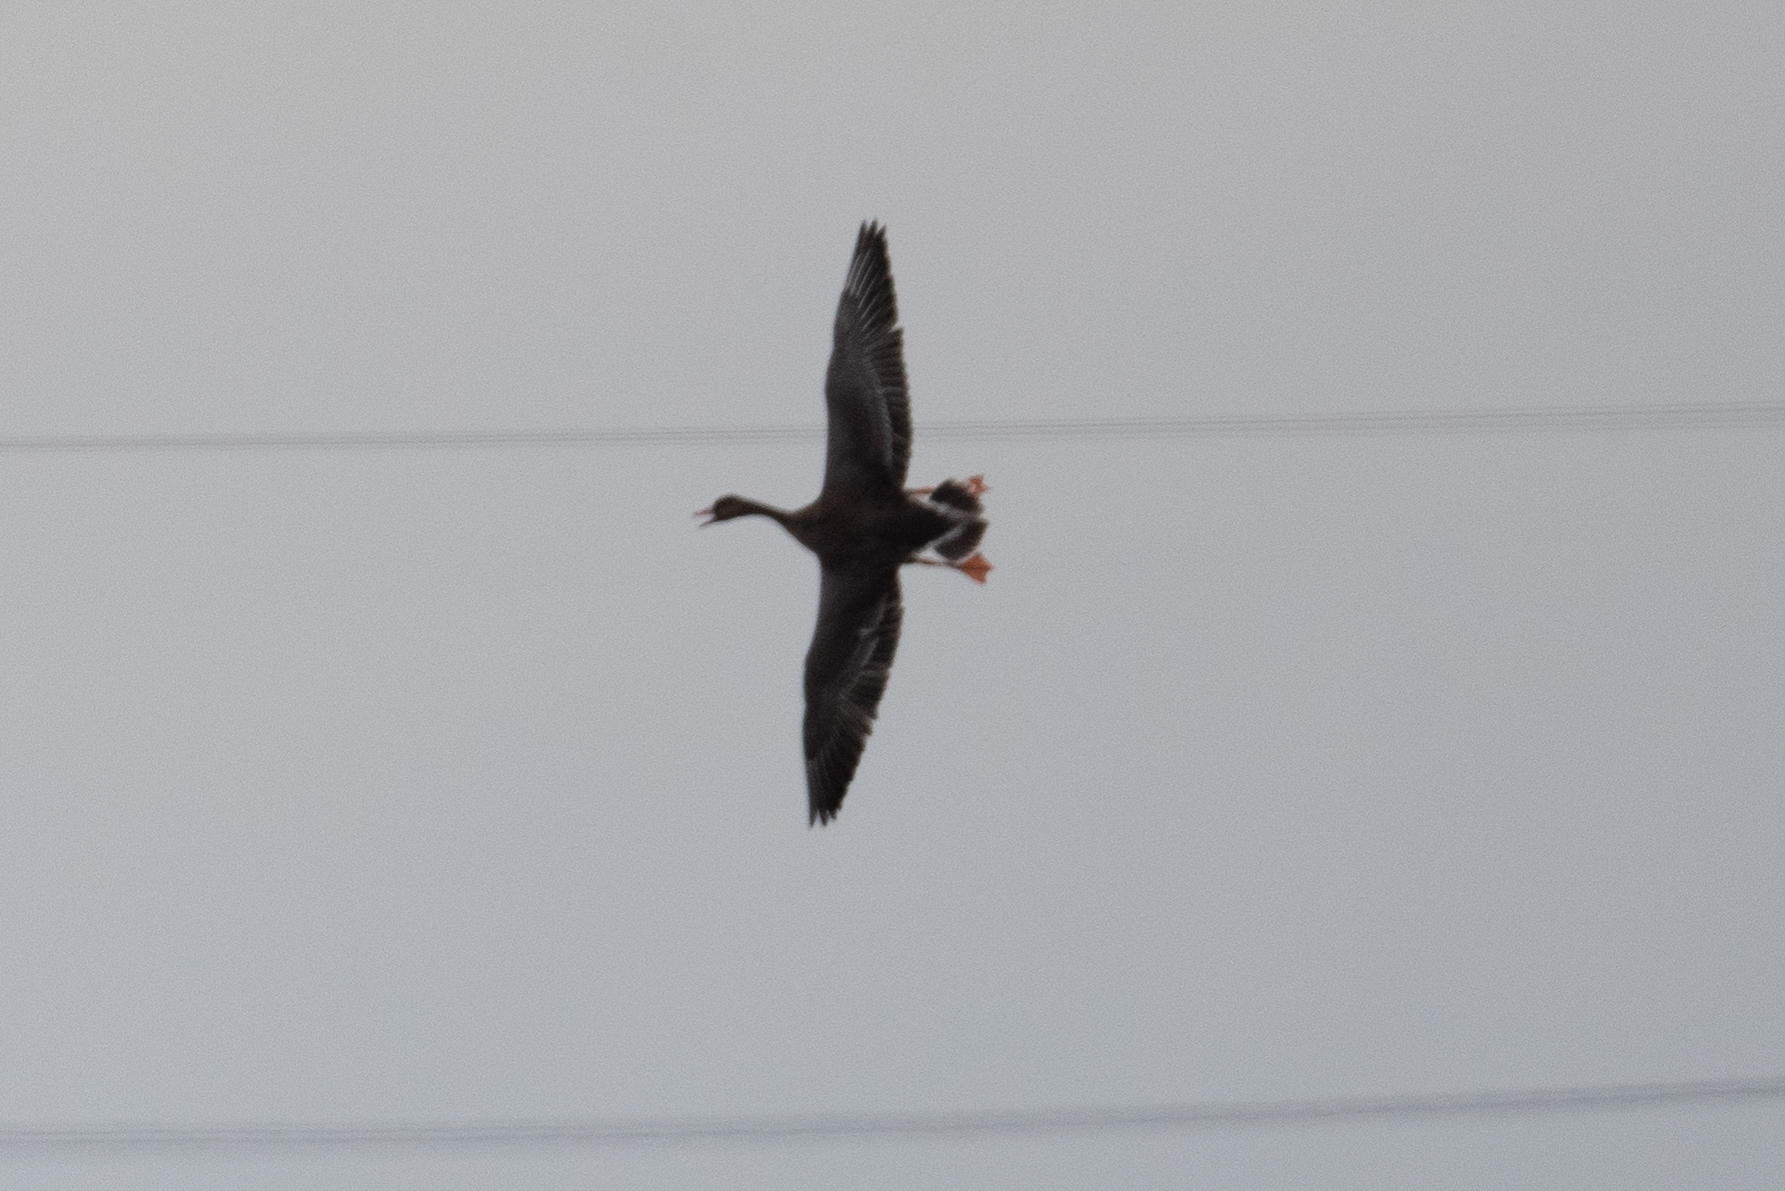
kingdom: Animalia
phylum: Chordata
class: Aves
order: Anseriformes
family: Anatidae
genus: Anser
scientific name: Anser albifrons
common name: Greater white-fronted goose
